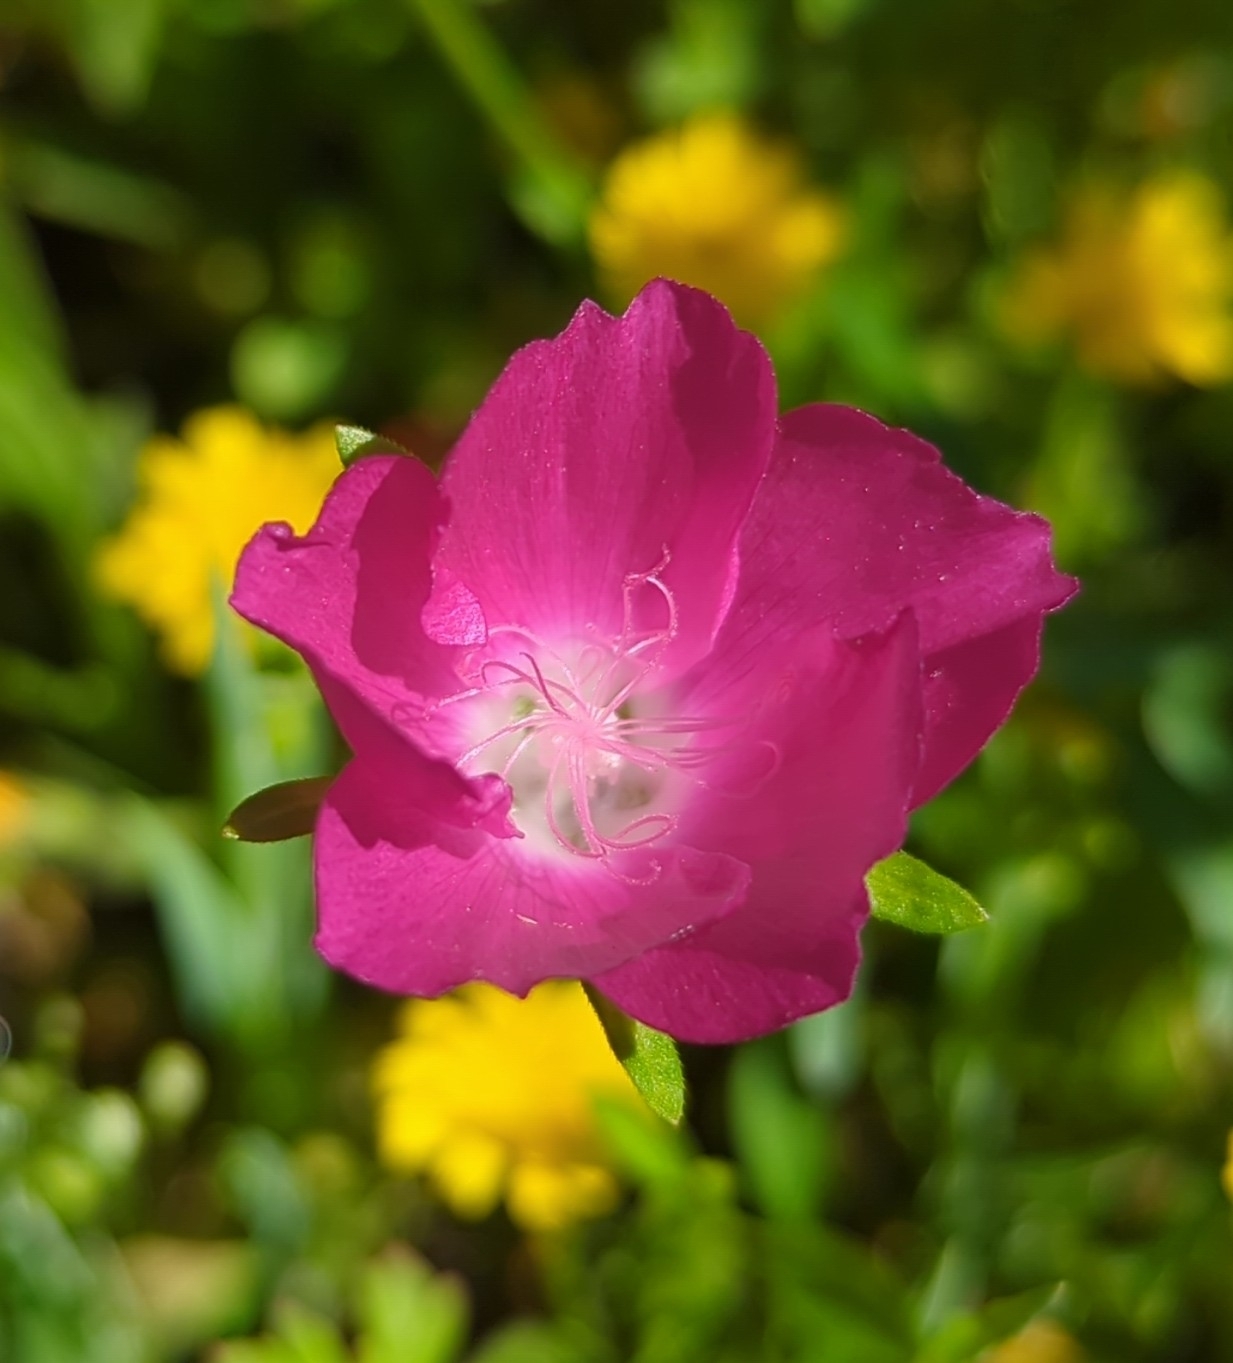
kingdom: Plantae
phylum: Tracheophyta
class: Magnoliopsida
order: Malvales
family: Malvaceae
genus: Callirhoe
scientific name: Callirhoe involucrata
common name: Purple poppy-mallow
